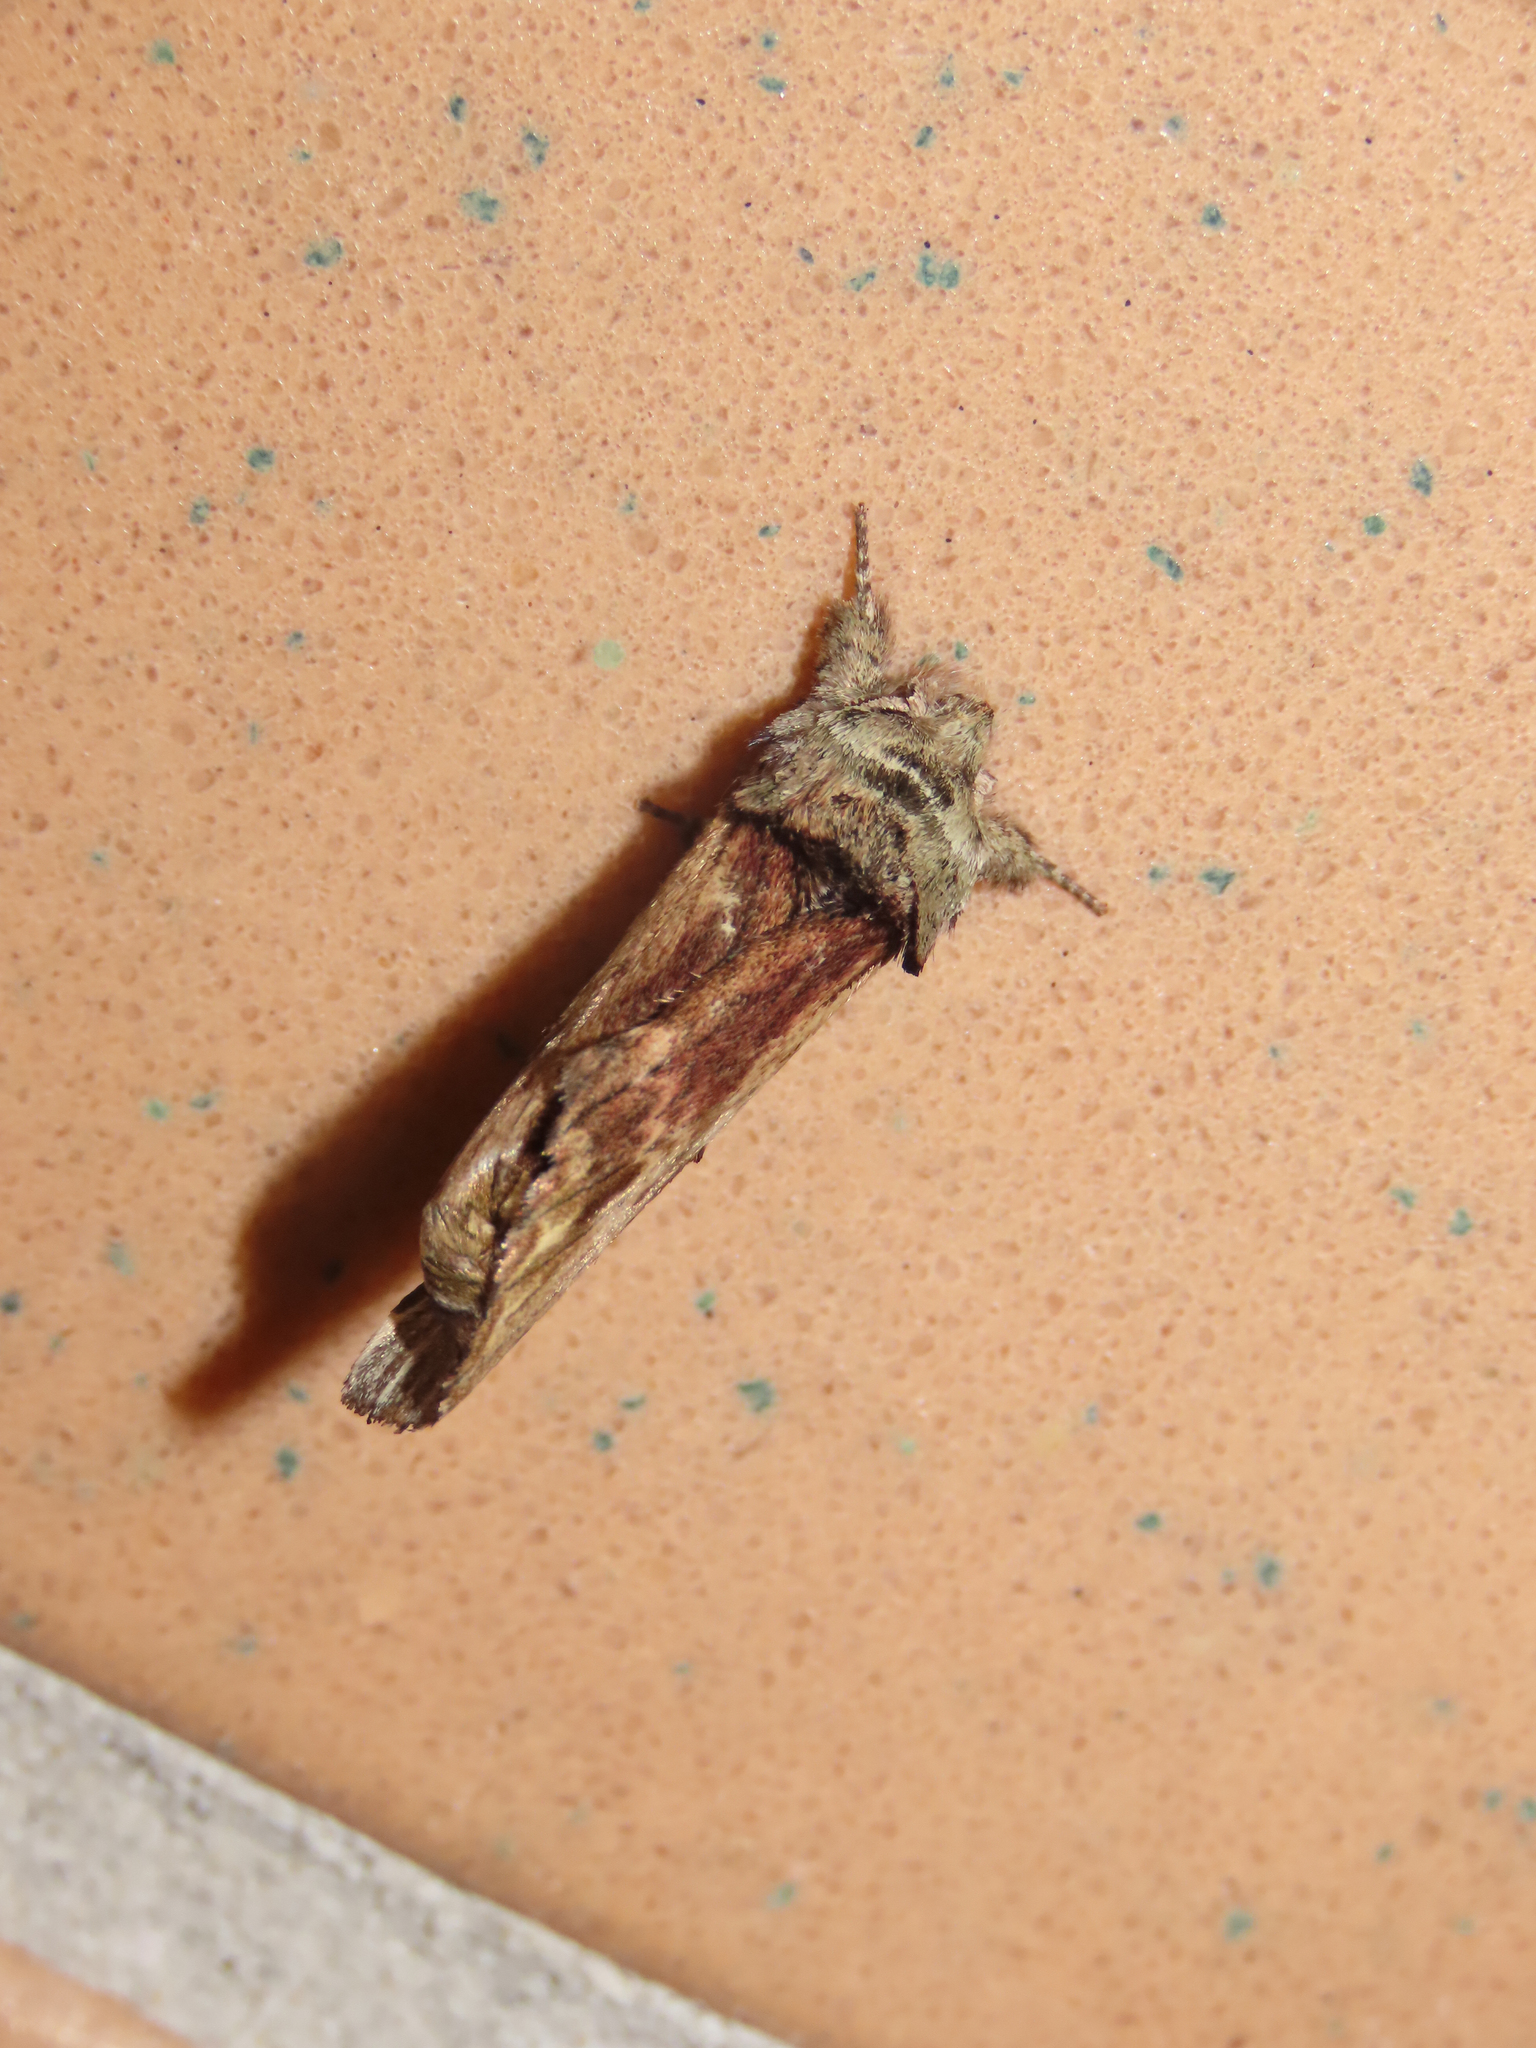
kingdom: Animalia
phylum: Arthropoda
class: Insecta
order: Lepidoptera
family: Notodontidae
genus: Schizura
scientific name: Schizura
